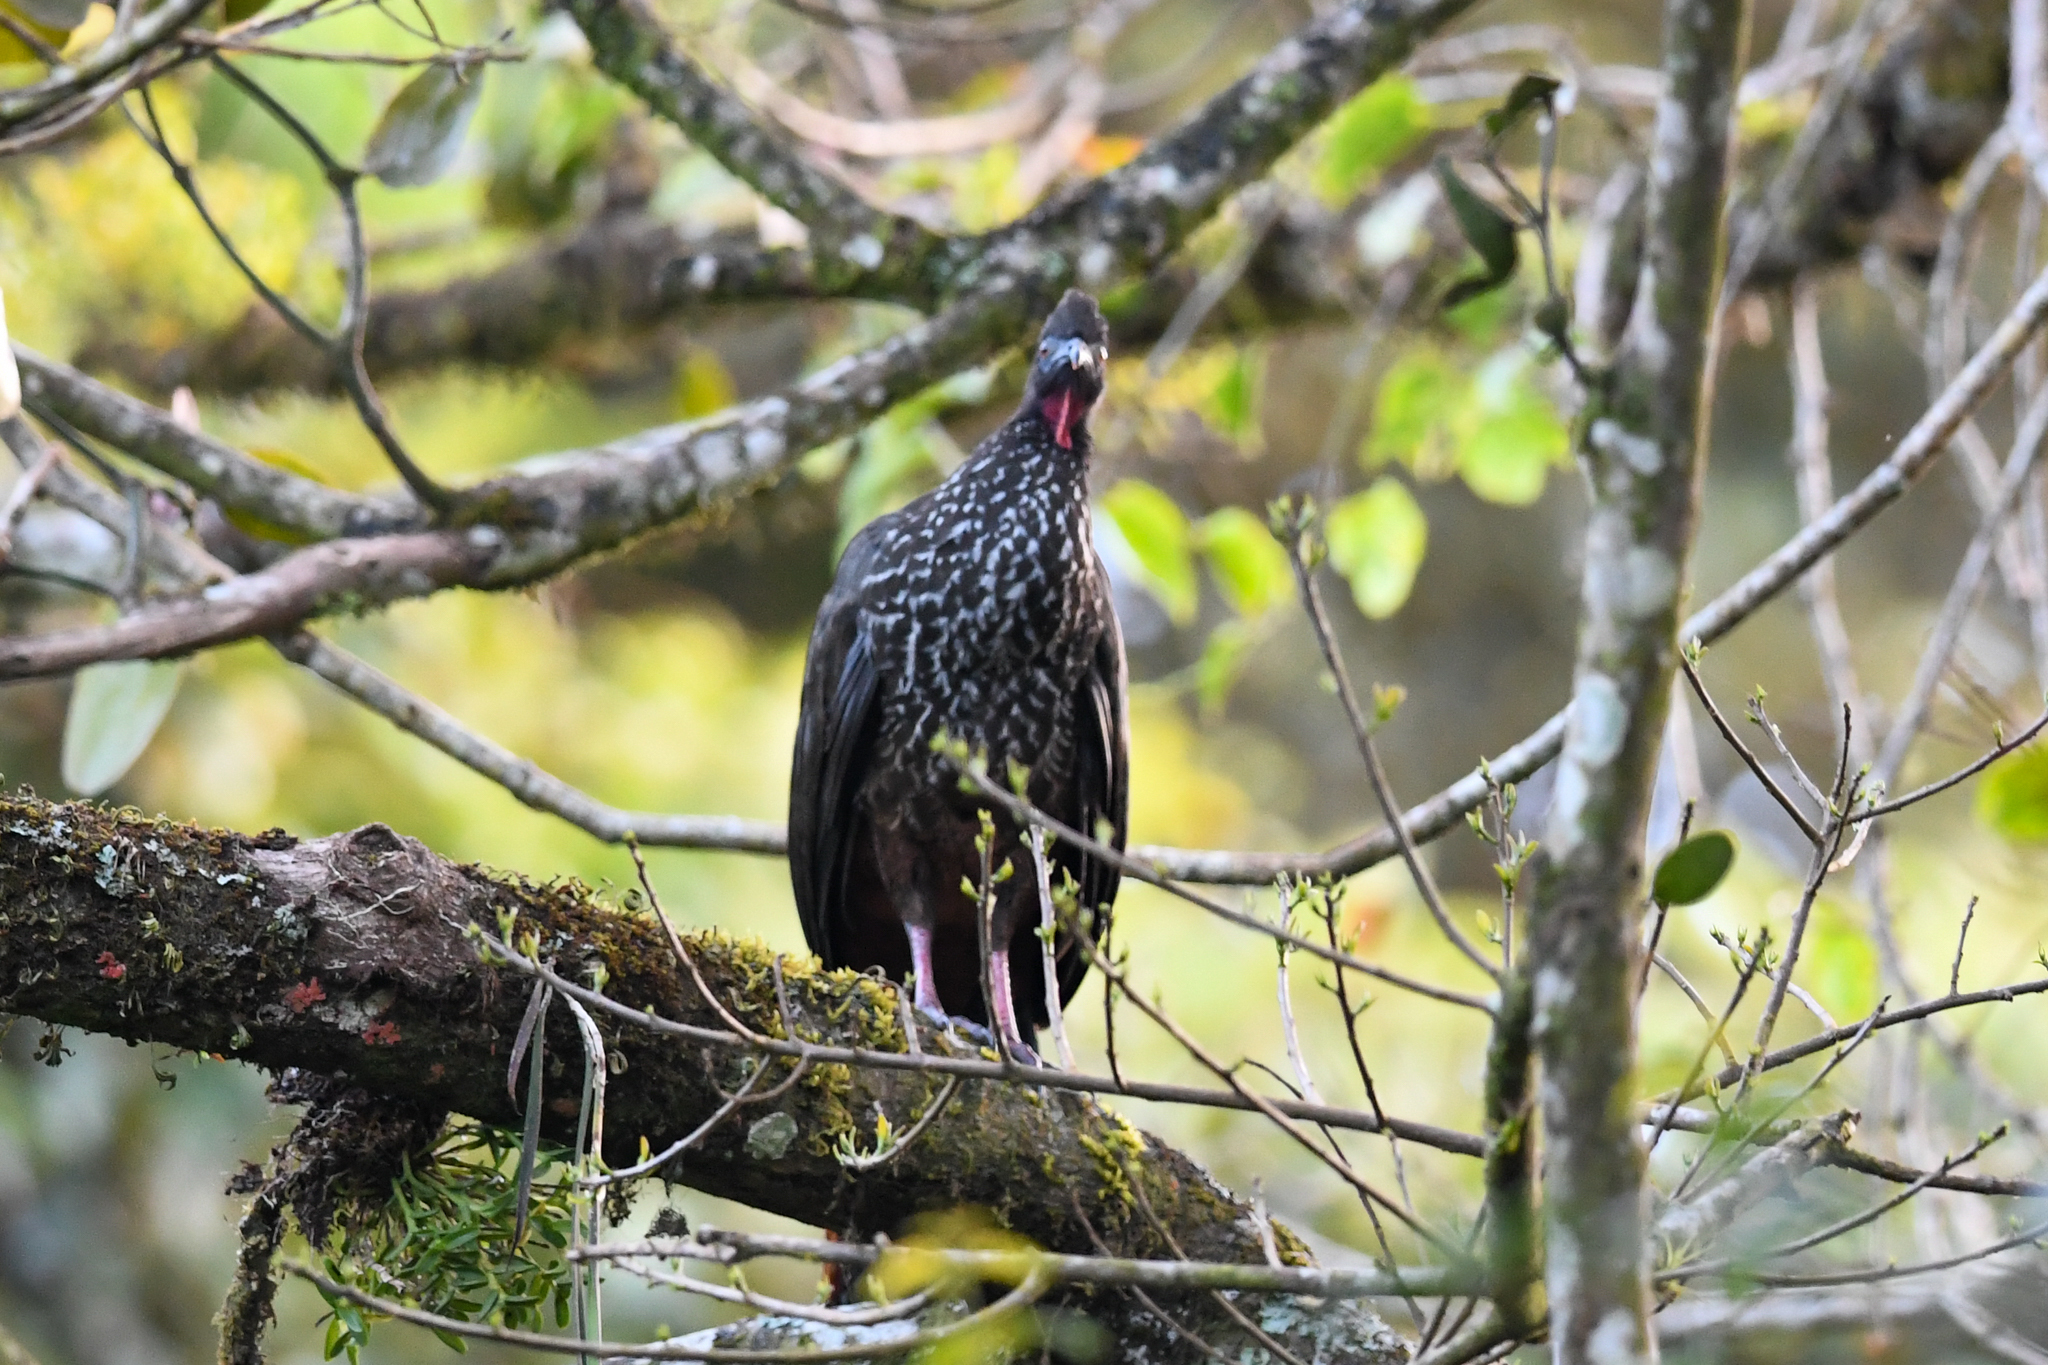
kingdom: Animalia
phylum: Chordata
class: Aves
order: Galliformes
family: Cracidae
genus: Penelope
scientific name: Penelope purpurascens
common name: Crested guan
